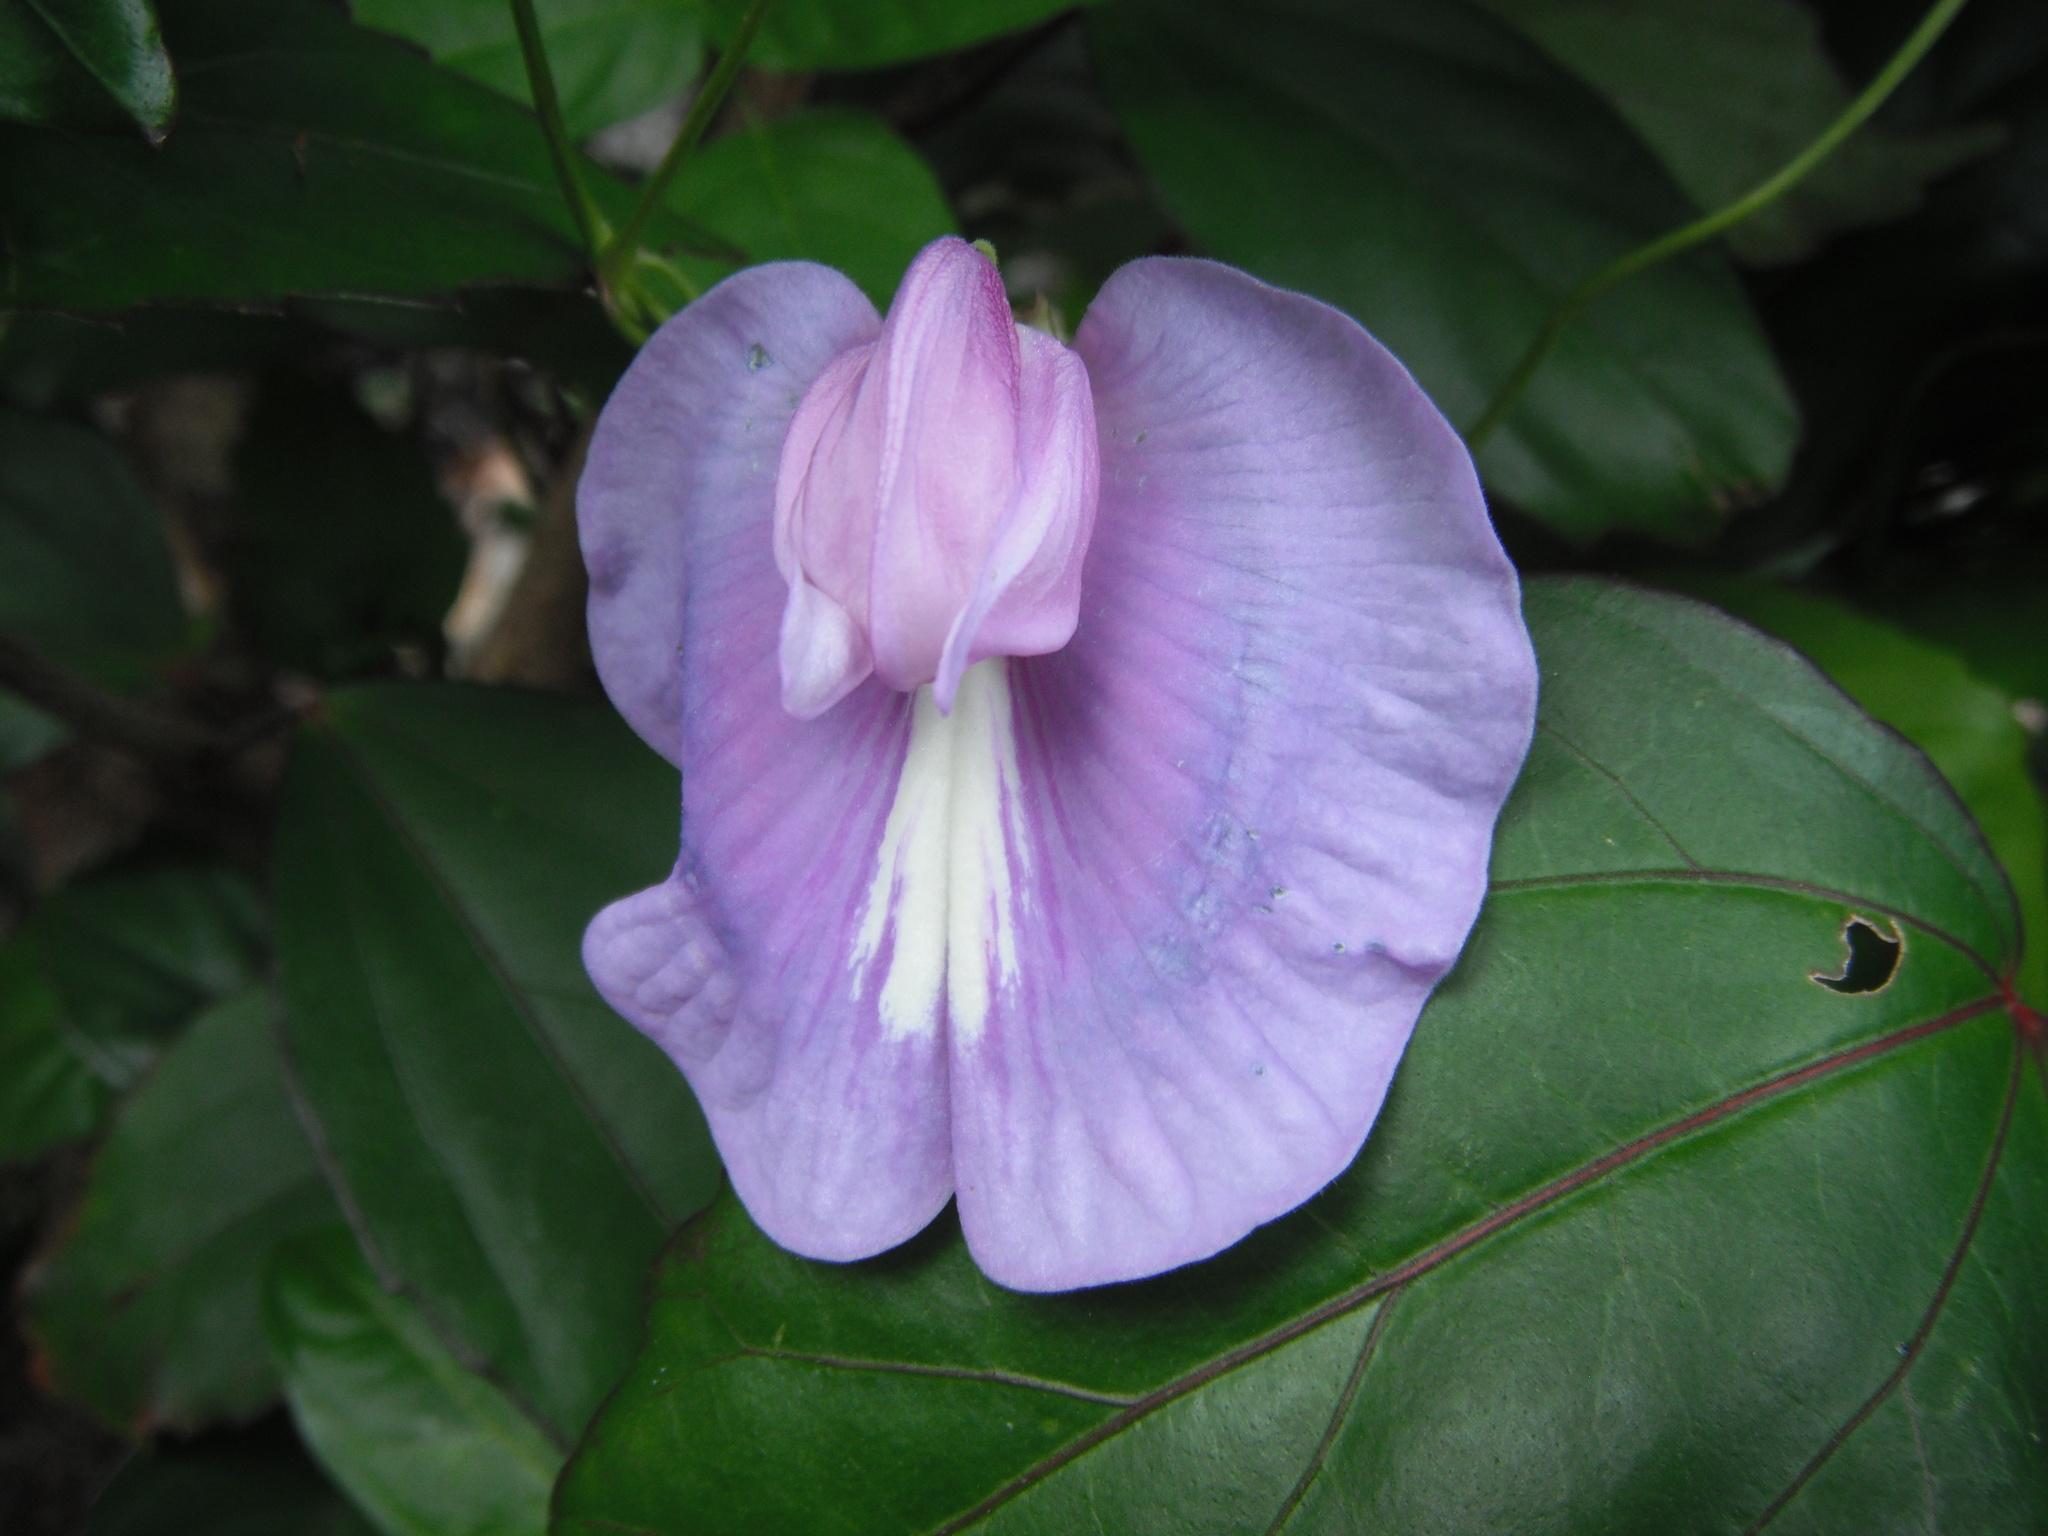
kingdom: Plantae
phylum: Tracheophyta
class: Magnoliopsida
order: Fabales
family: Fabaceae
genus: Centrosema
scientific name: Centrosema virginianum
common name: Butterfly-pea
